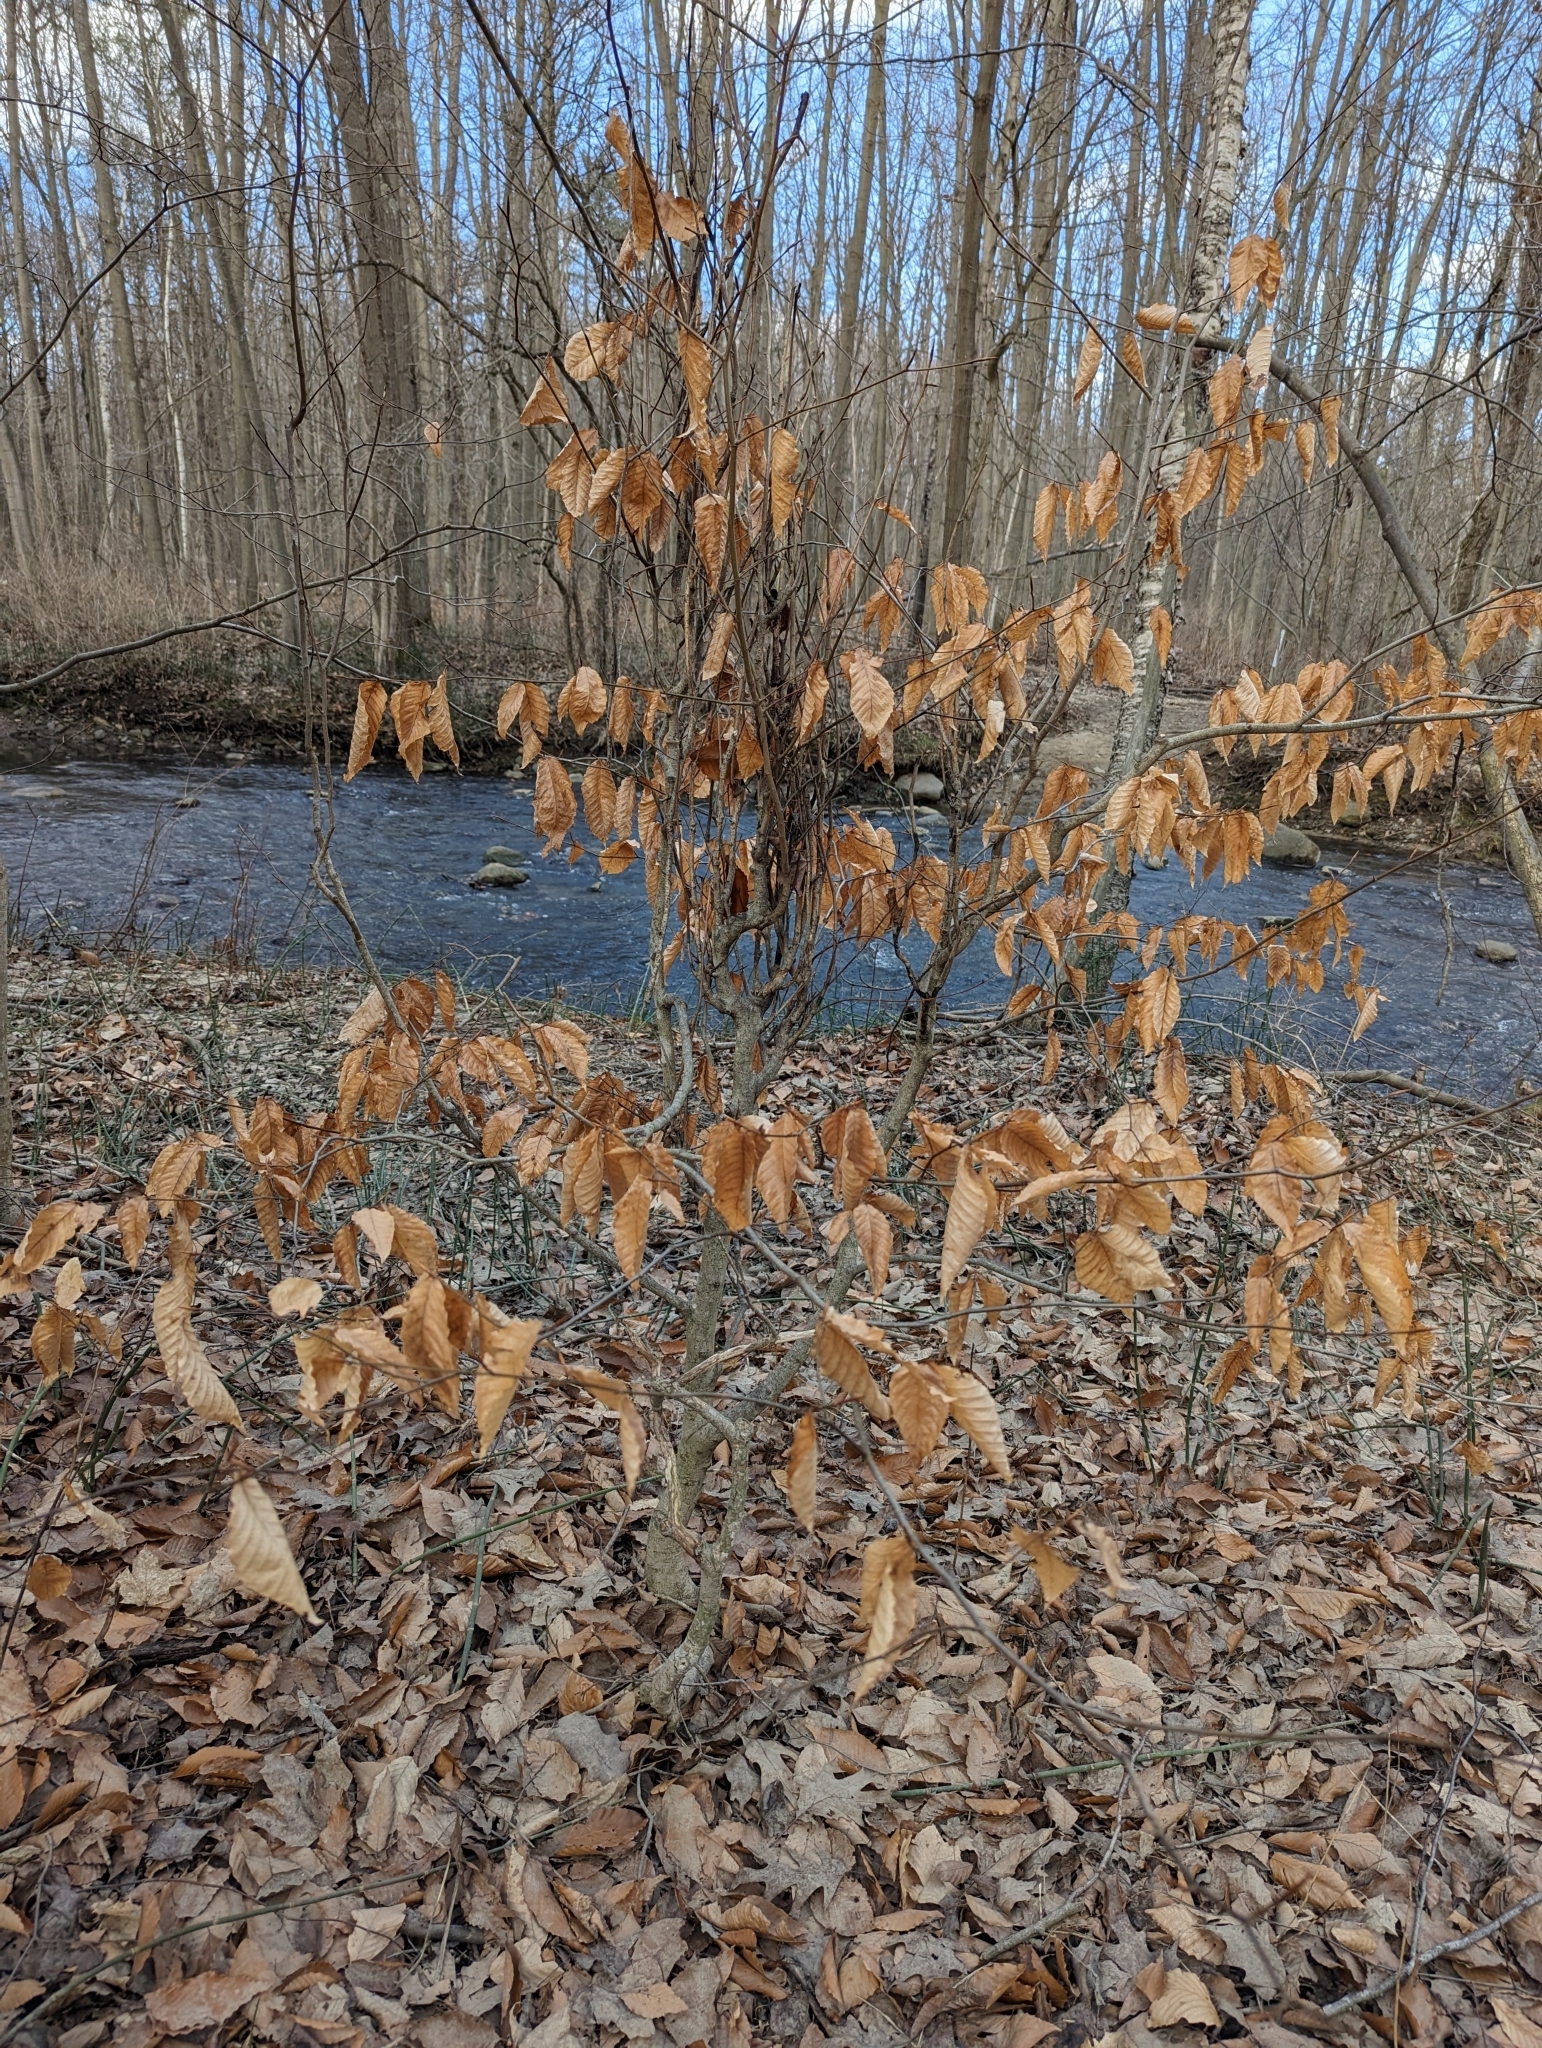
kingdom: Plantae
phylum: Tracheophyta
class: Magnoliopsida
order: Fagales
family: Fagaceae
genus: Fagus
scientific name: Fagus grandifolia
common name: American beech
